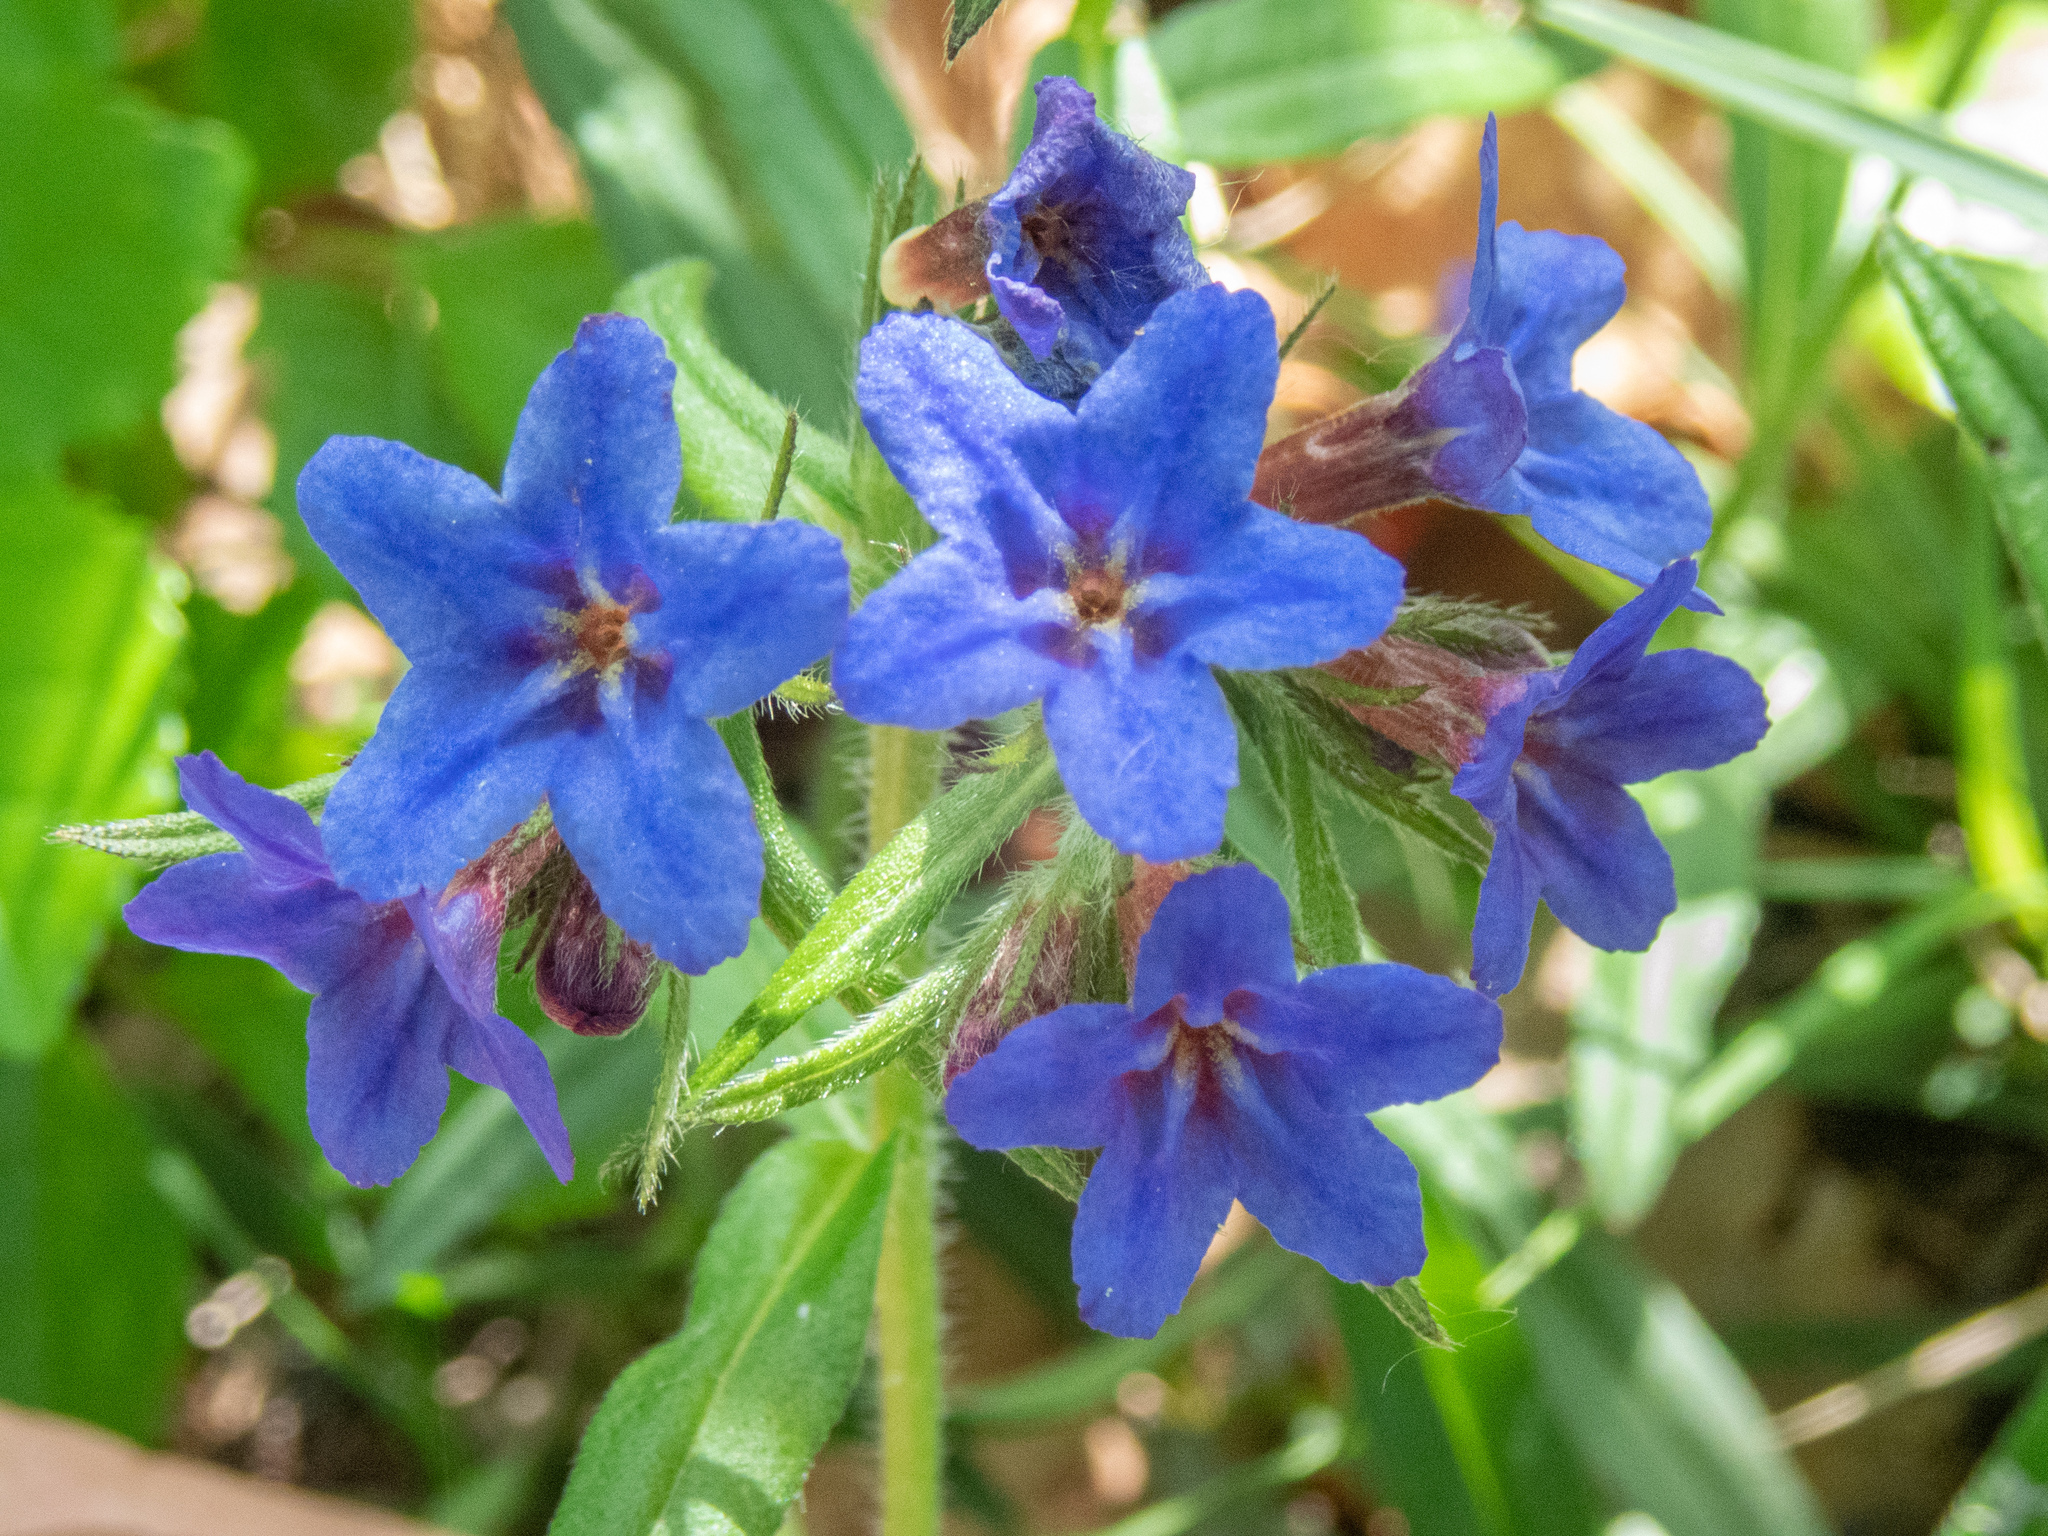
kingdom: Plantae
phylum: Tracheophyta
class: Magnoliopsida
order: Boraginales
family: Boraginaceae
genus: Aegonychon
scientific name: Aegonychon purpurocaeruleum
